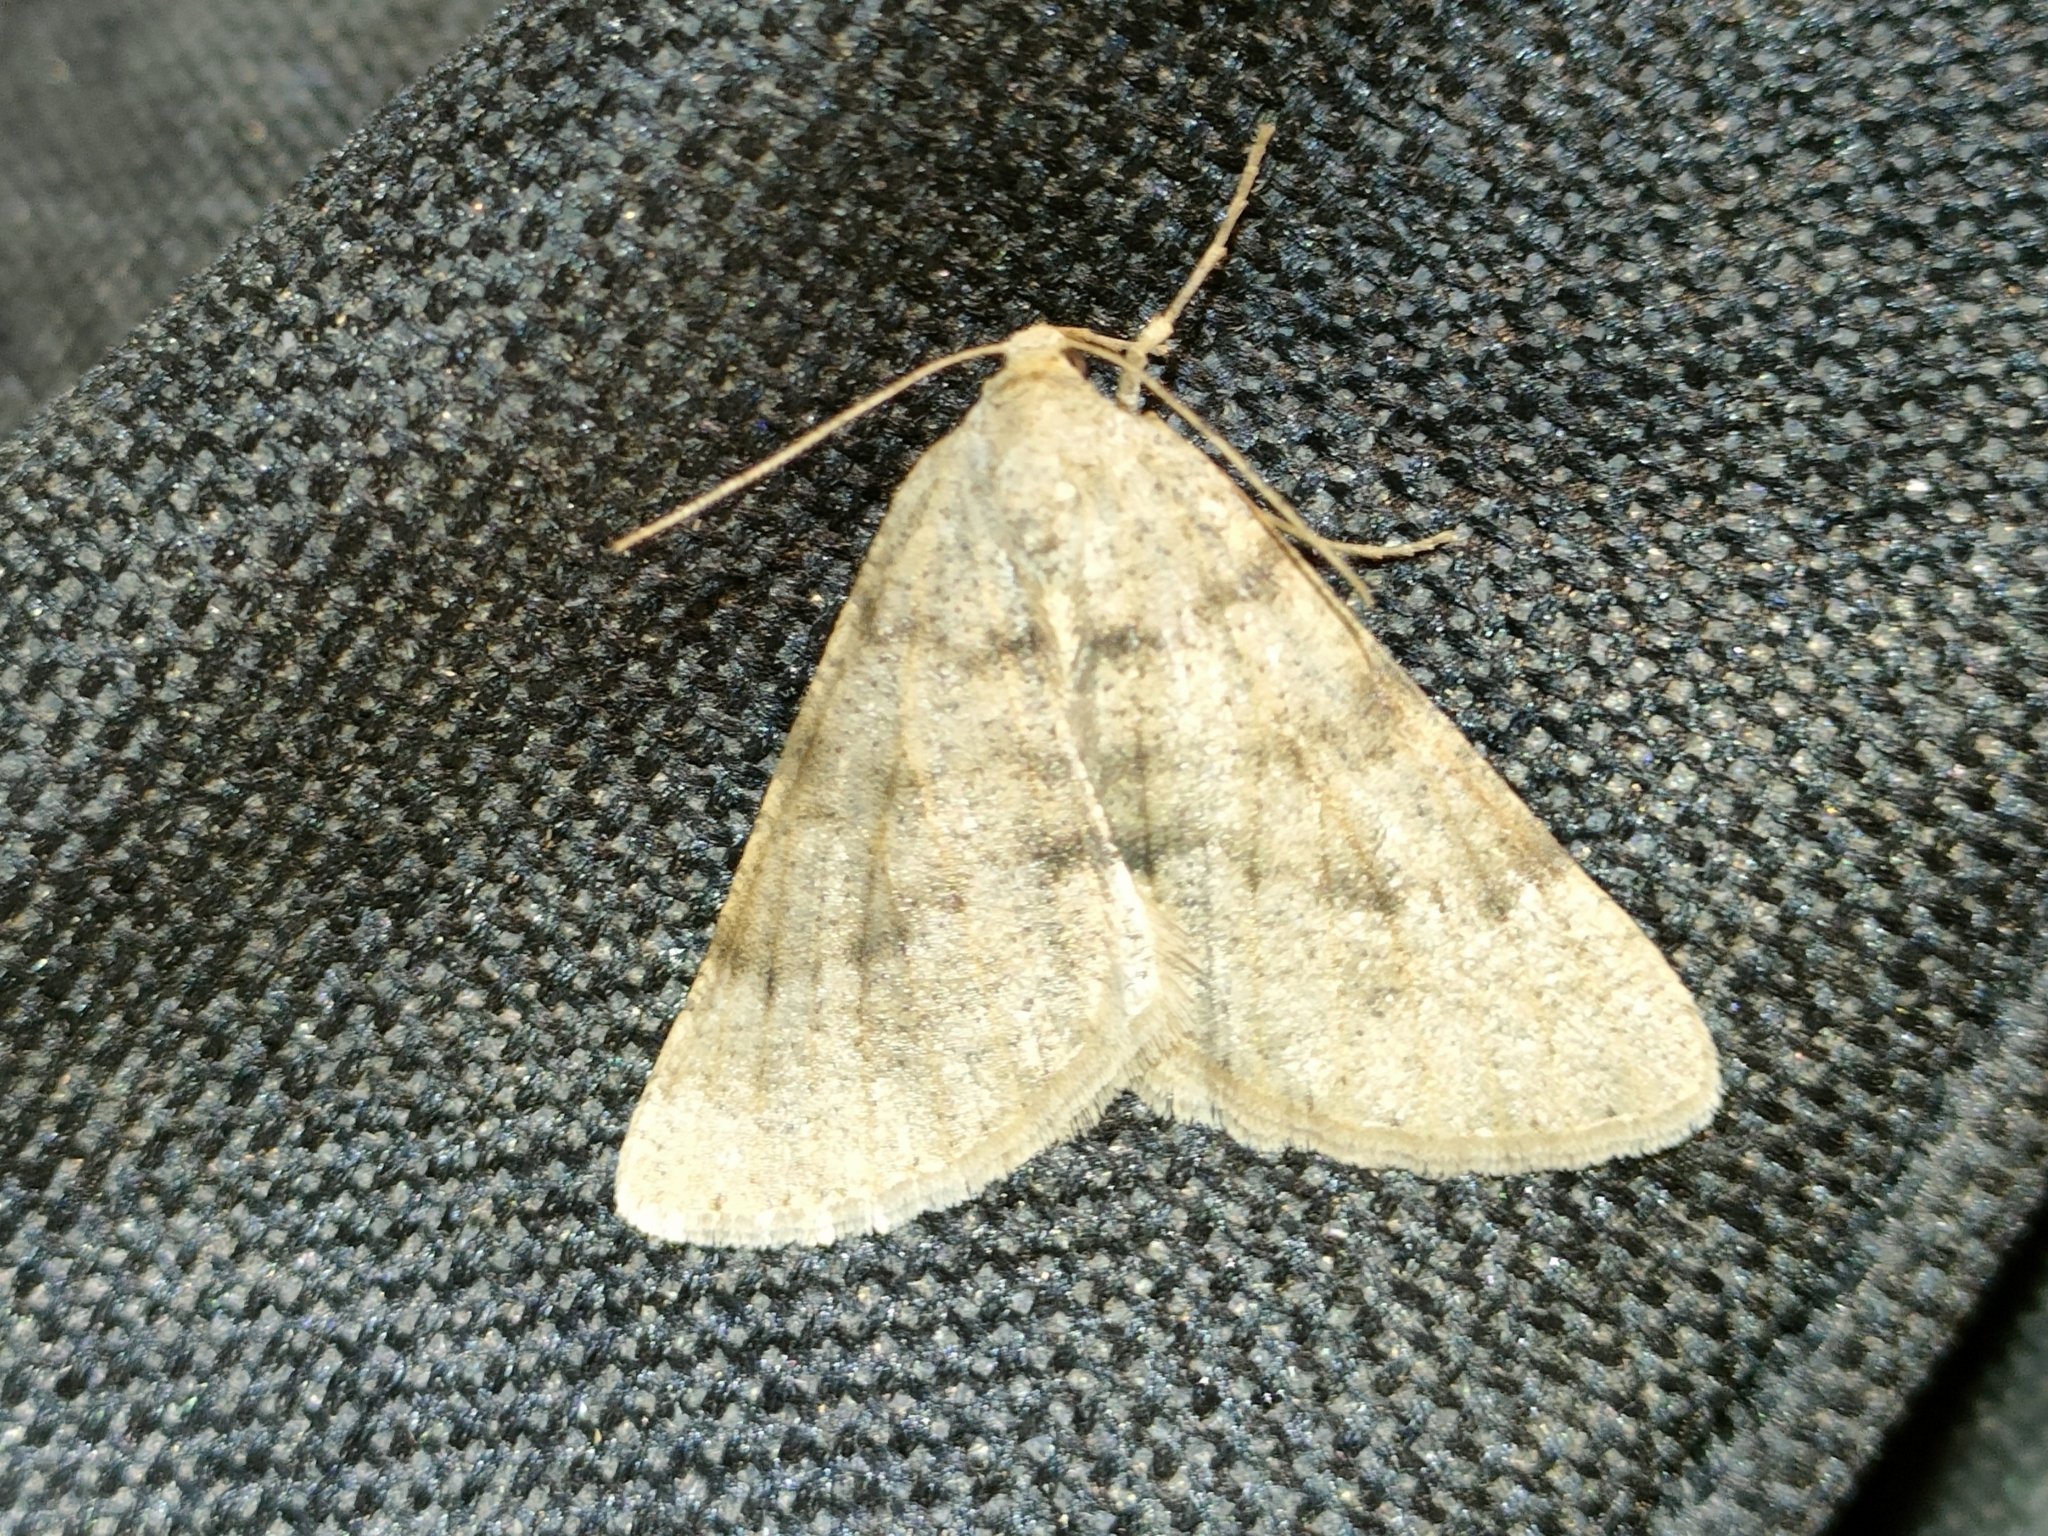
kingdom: Animalia
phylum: Arthropoda
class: Insecta
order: Lepidoptera
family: Geometridae
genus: Isturgia
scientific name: Isturgia miniosaria
